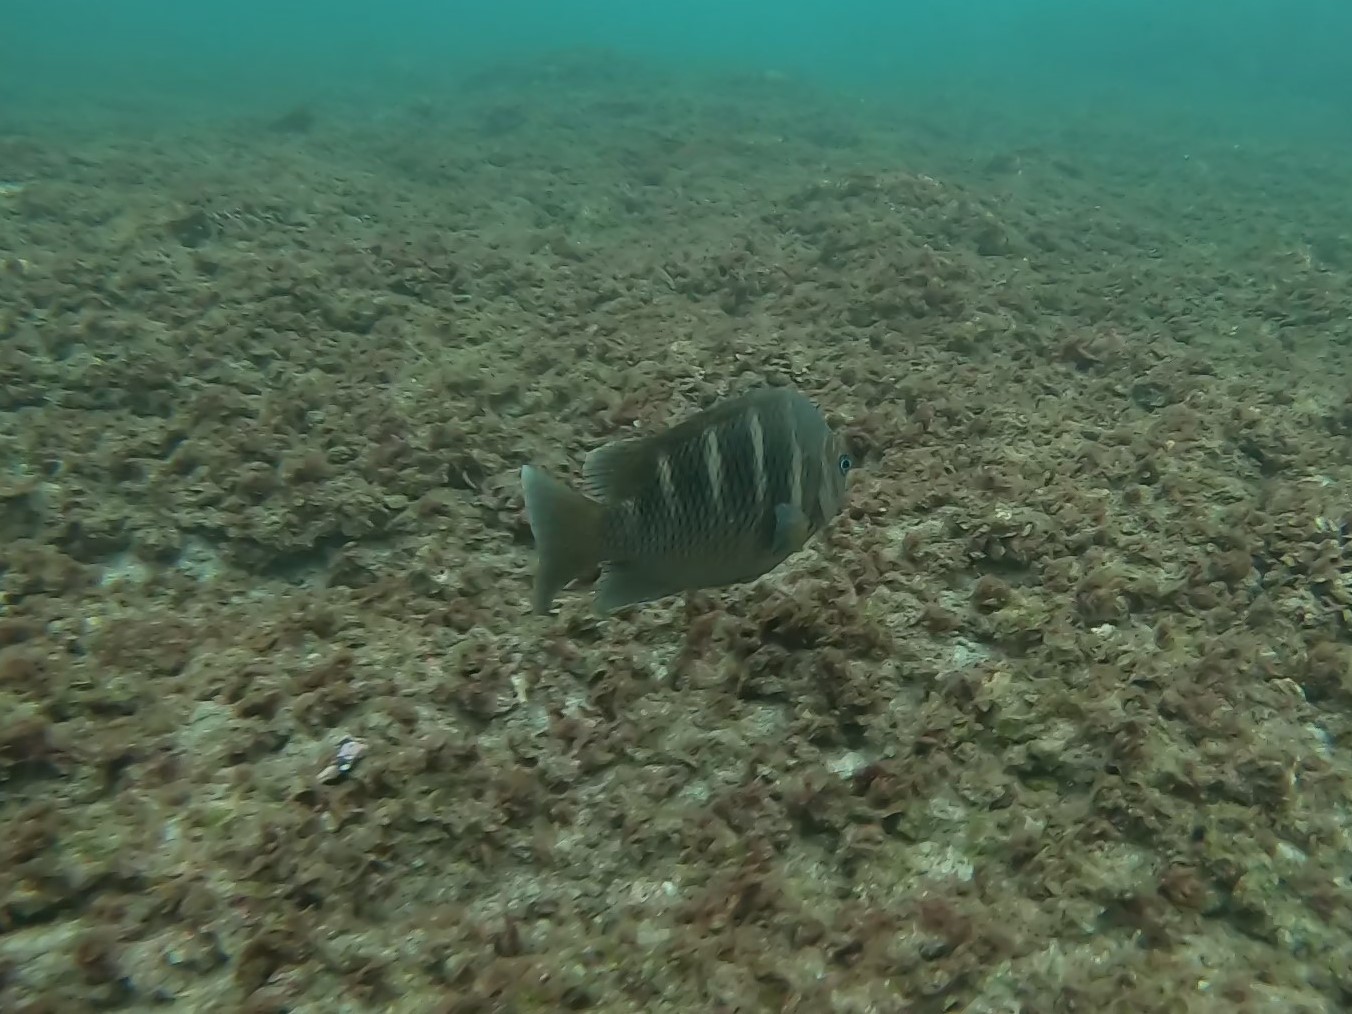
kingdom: Animalia
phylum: Chordata
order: Perciformes
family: Pomacentridae
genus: Abudefduf
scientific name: Abudefduf concolor
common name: Dusky seargent
